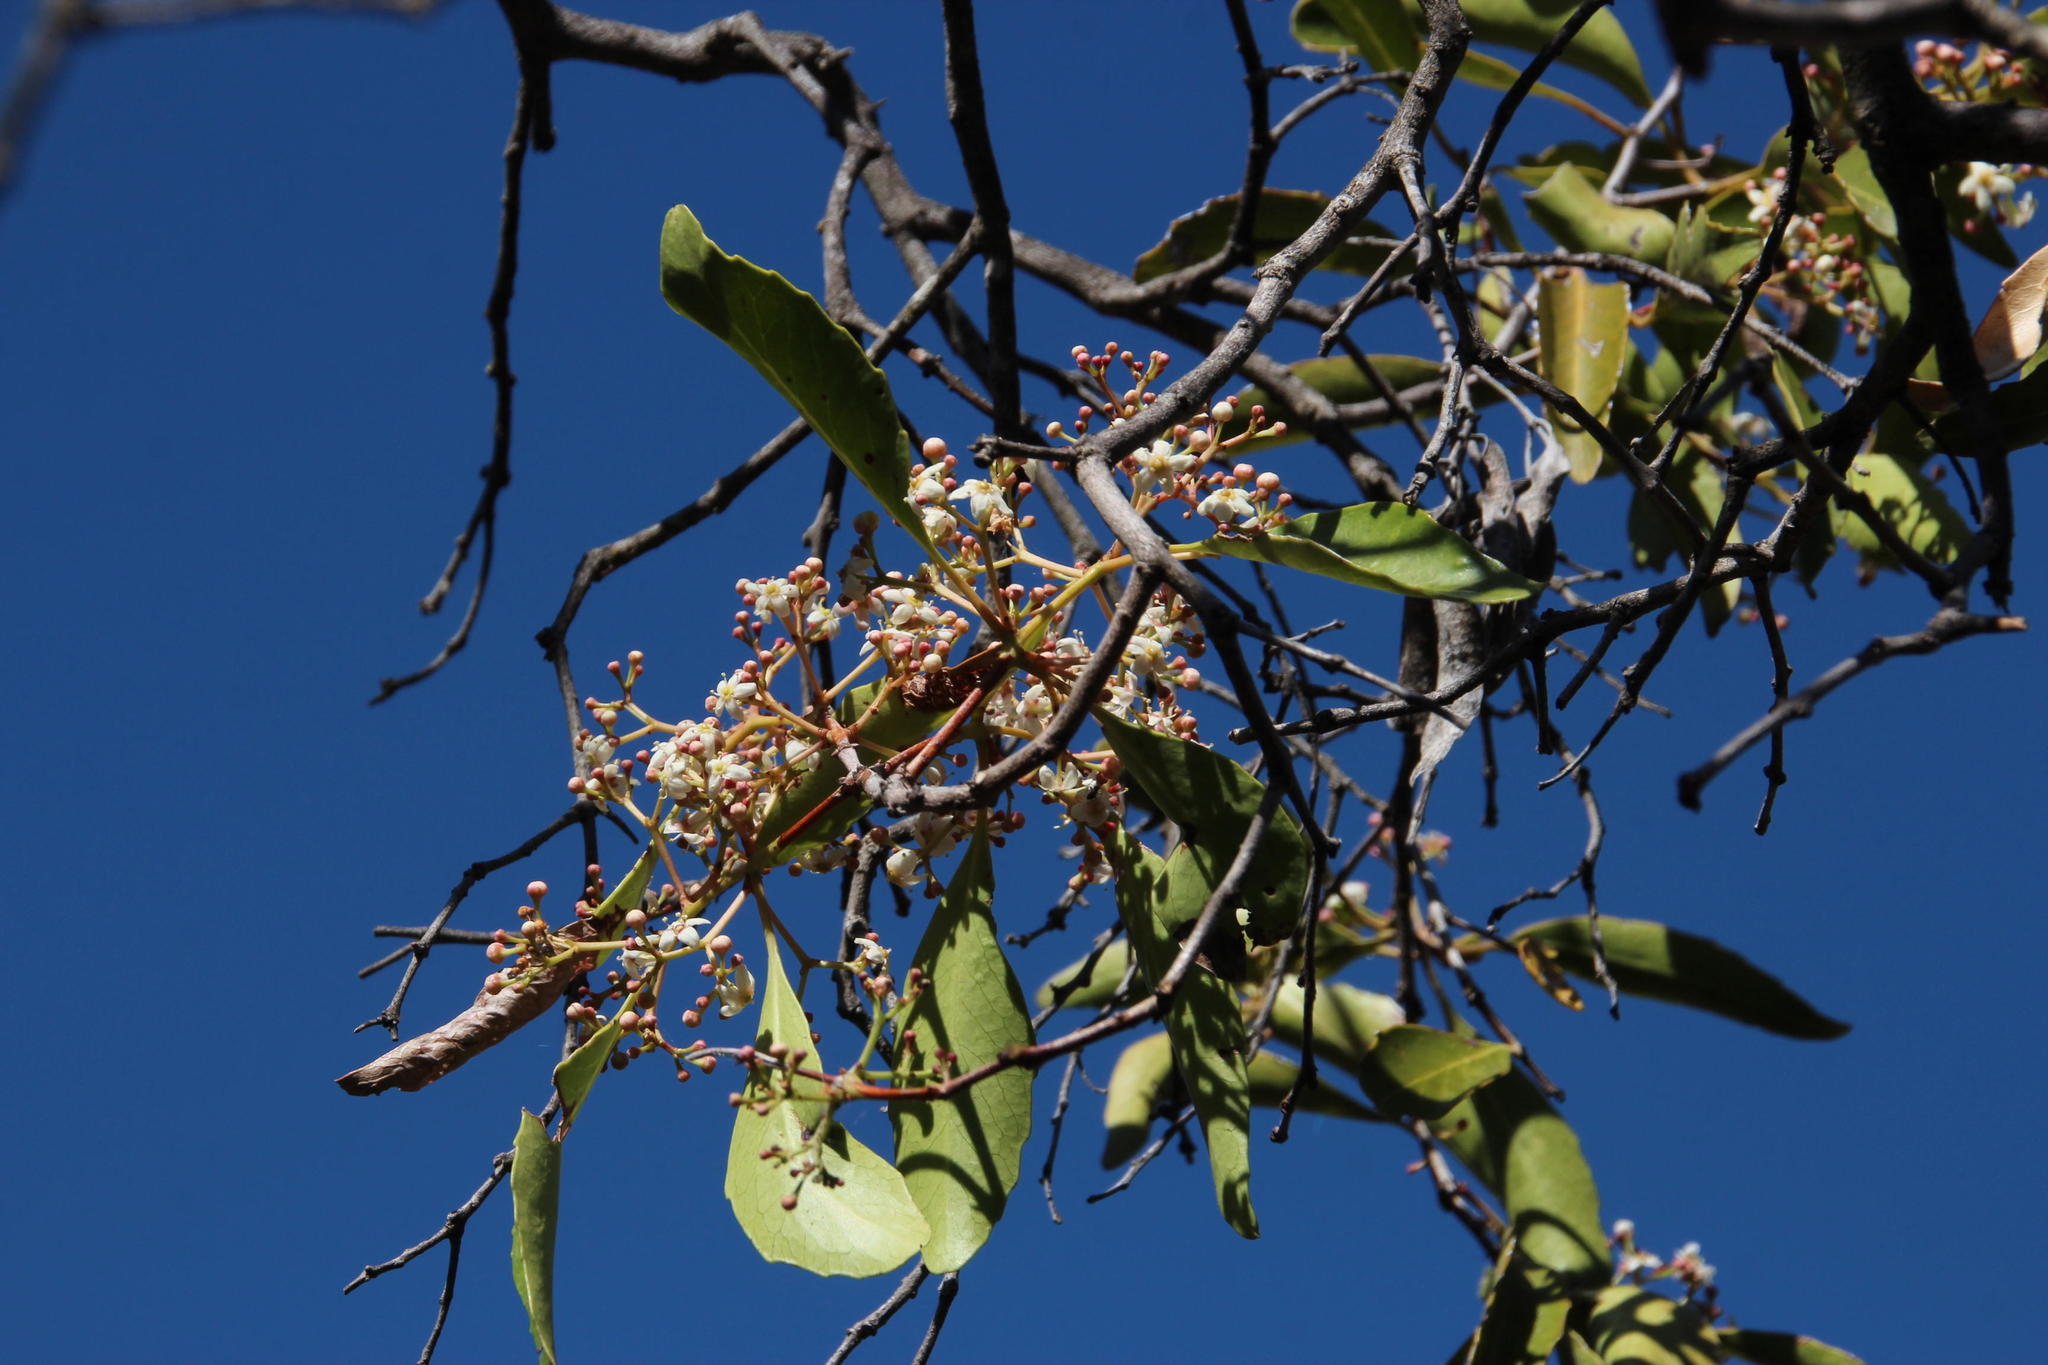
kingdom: Plantae
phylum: Tracheophyta
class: Magnoliopsida
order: Celastrales
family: Celastraceae
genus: Cassine
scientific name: Cassine peragua
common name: Cape saffron
